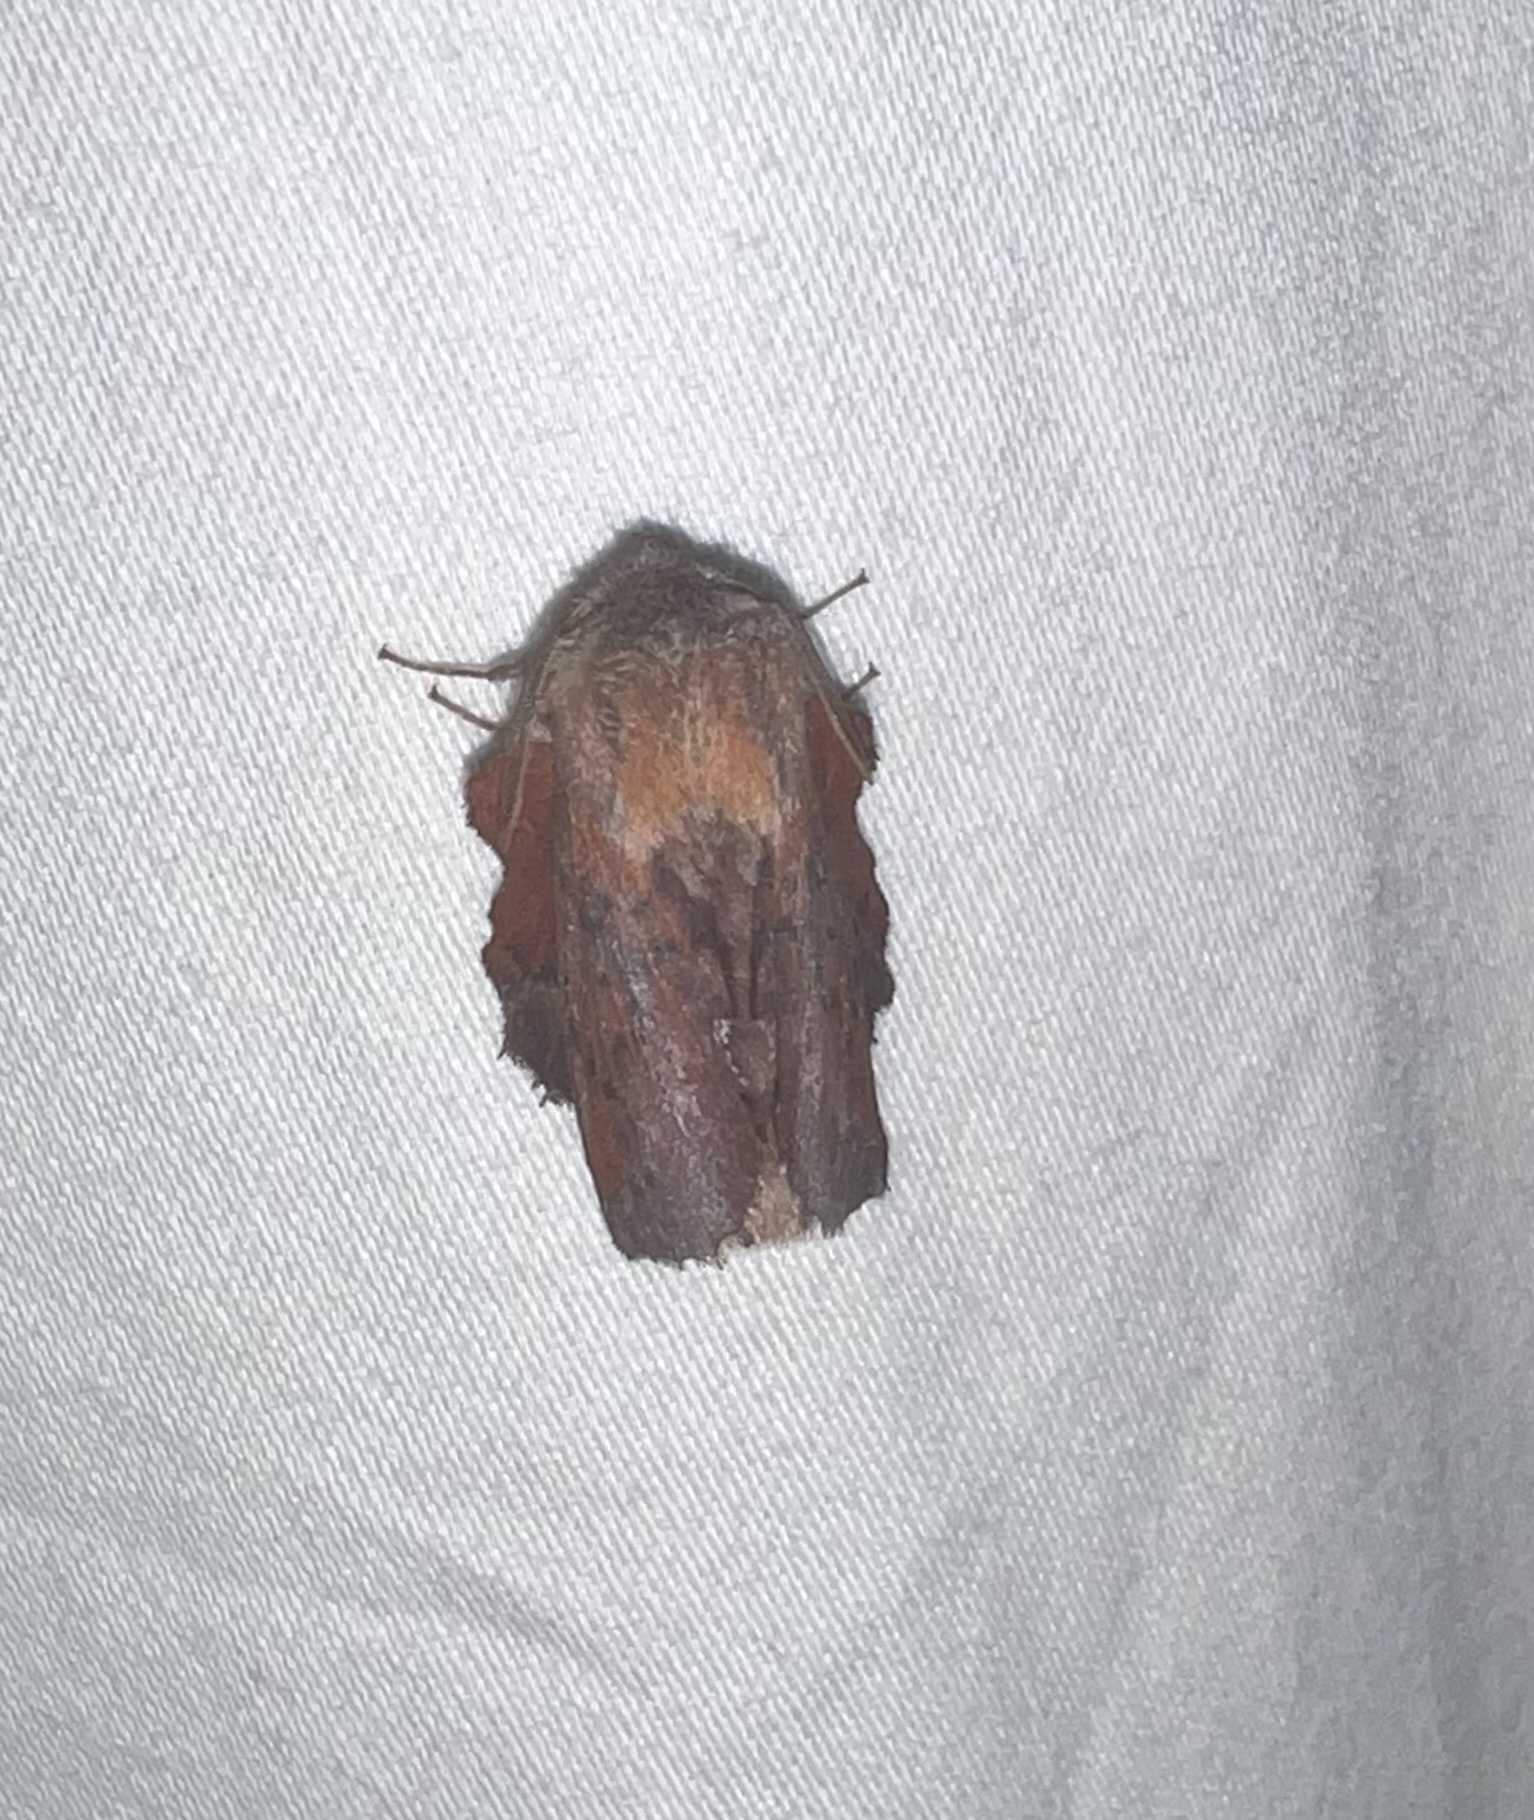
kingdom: Animalia
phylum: Arthropoda
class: Insecta
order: Lepidoptera
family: Lasiocampidae
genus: Phyllodesma
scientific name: Phyllodesma americana
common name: American lappet moth
